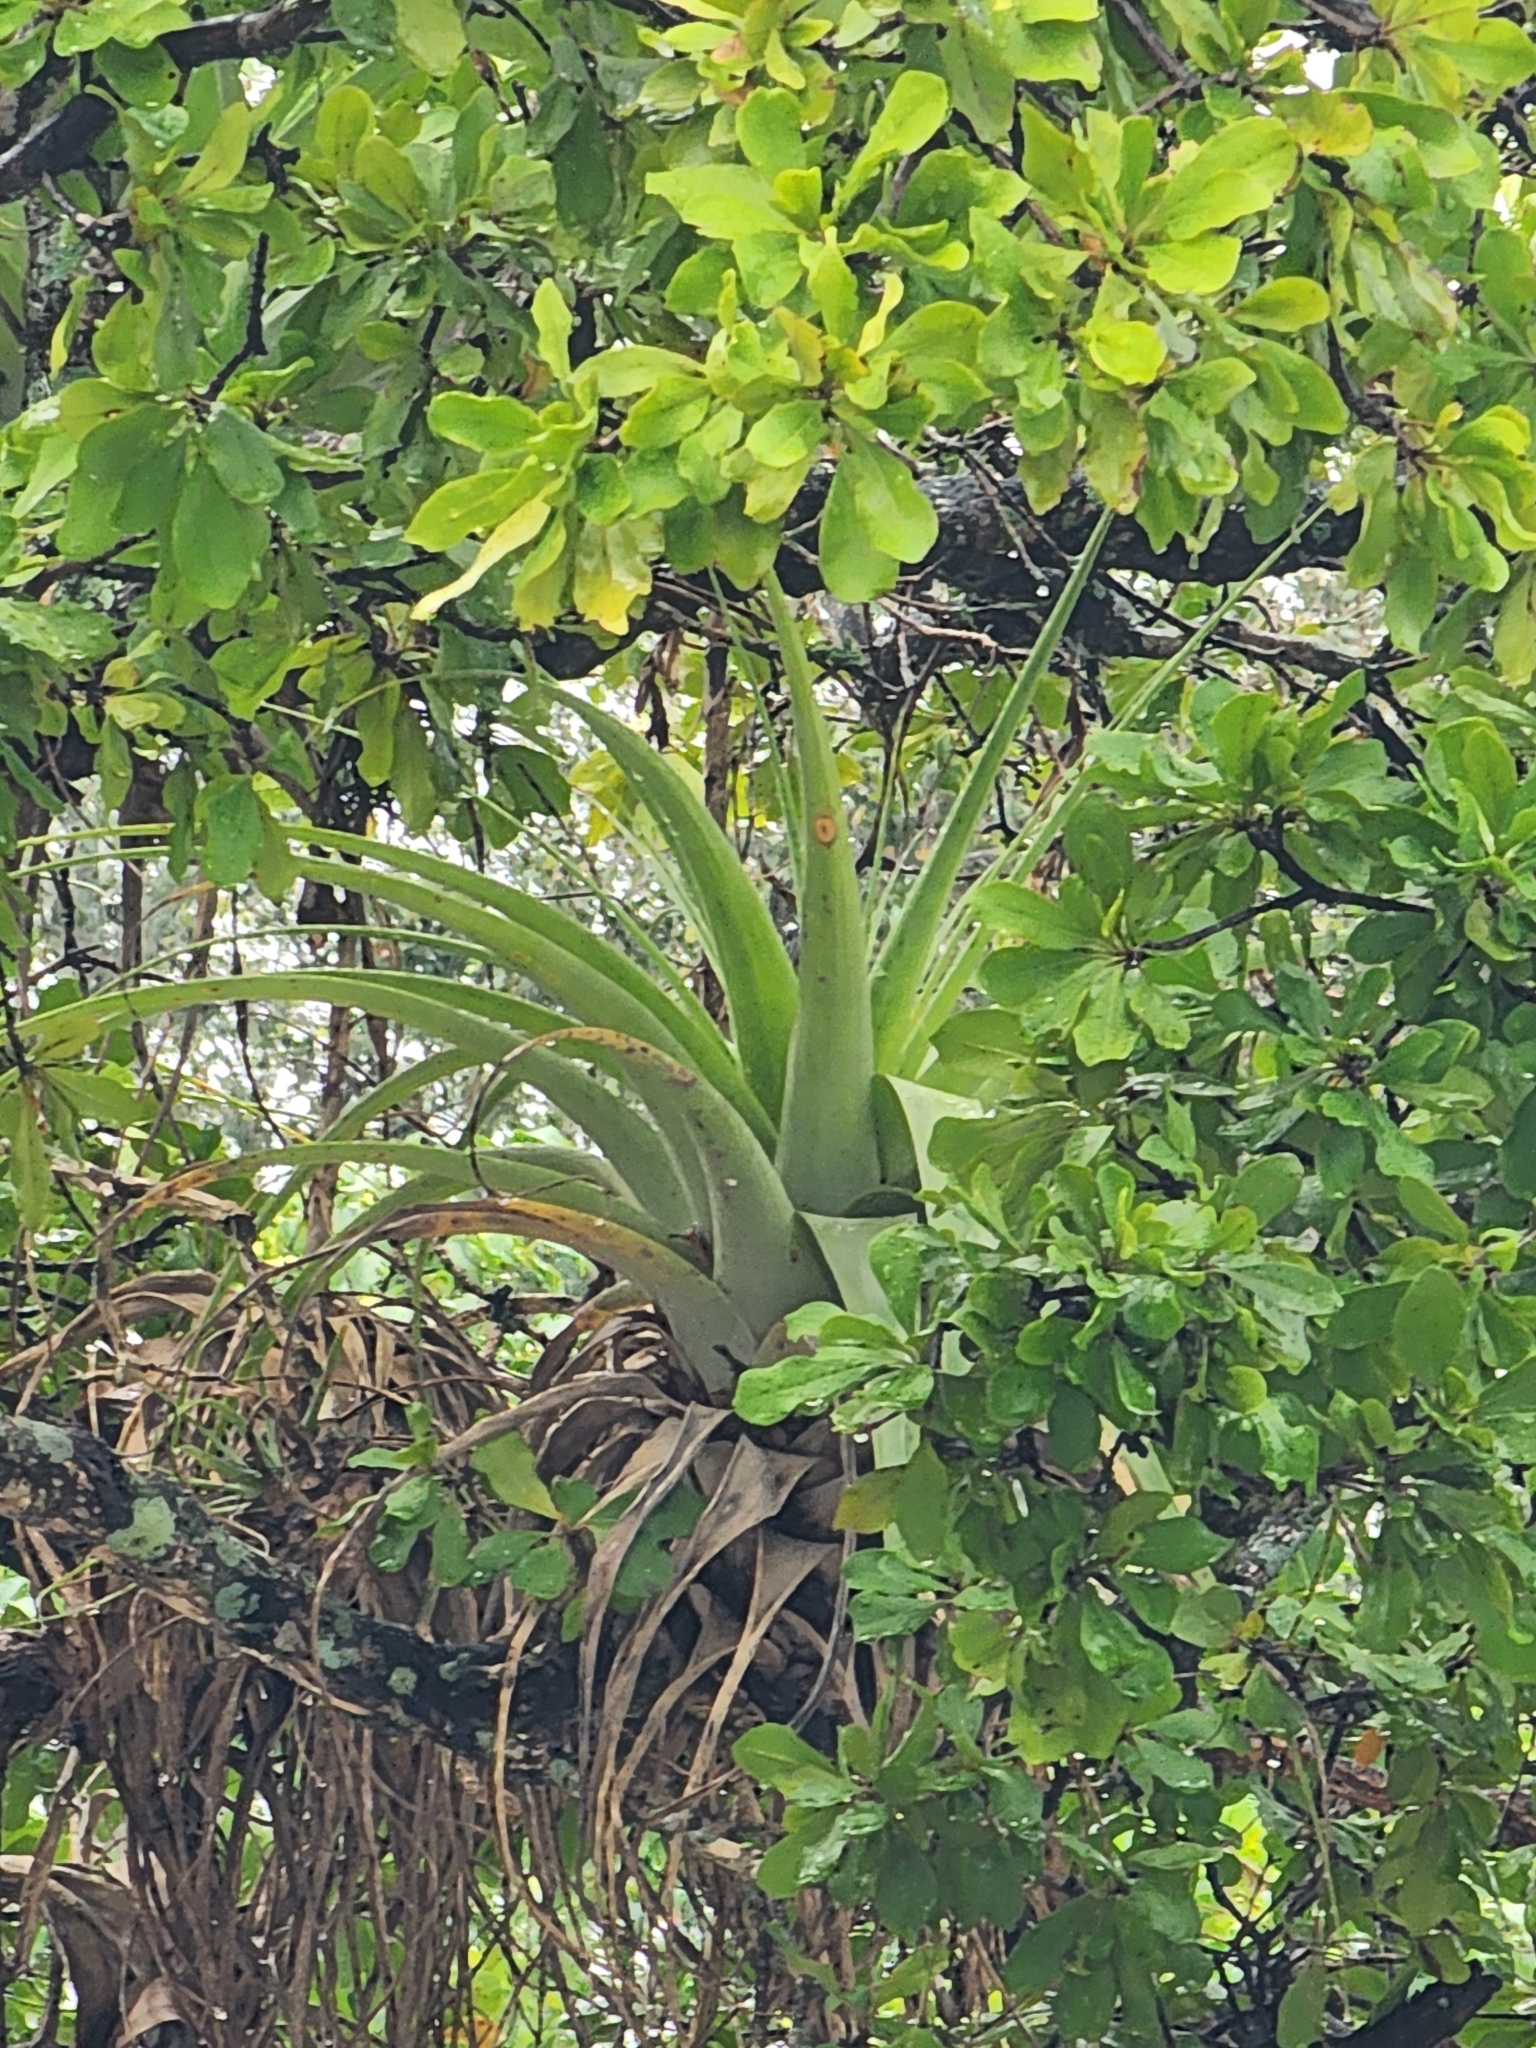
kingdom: Plantae
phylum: Tracheophyta
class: Liliopsida
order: Poales
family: Bromeliaceae
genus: Tillandsia
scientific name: Tillandsia utriculata
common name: Wild pine
